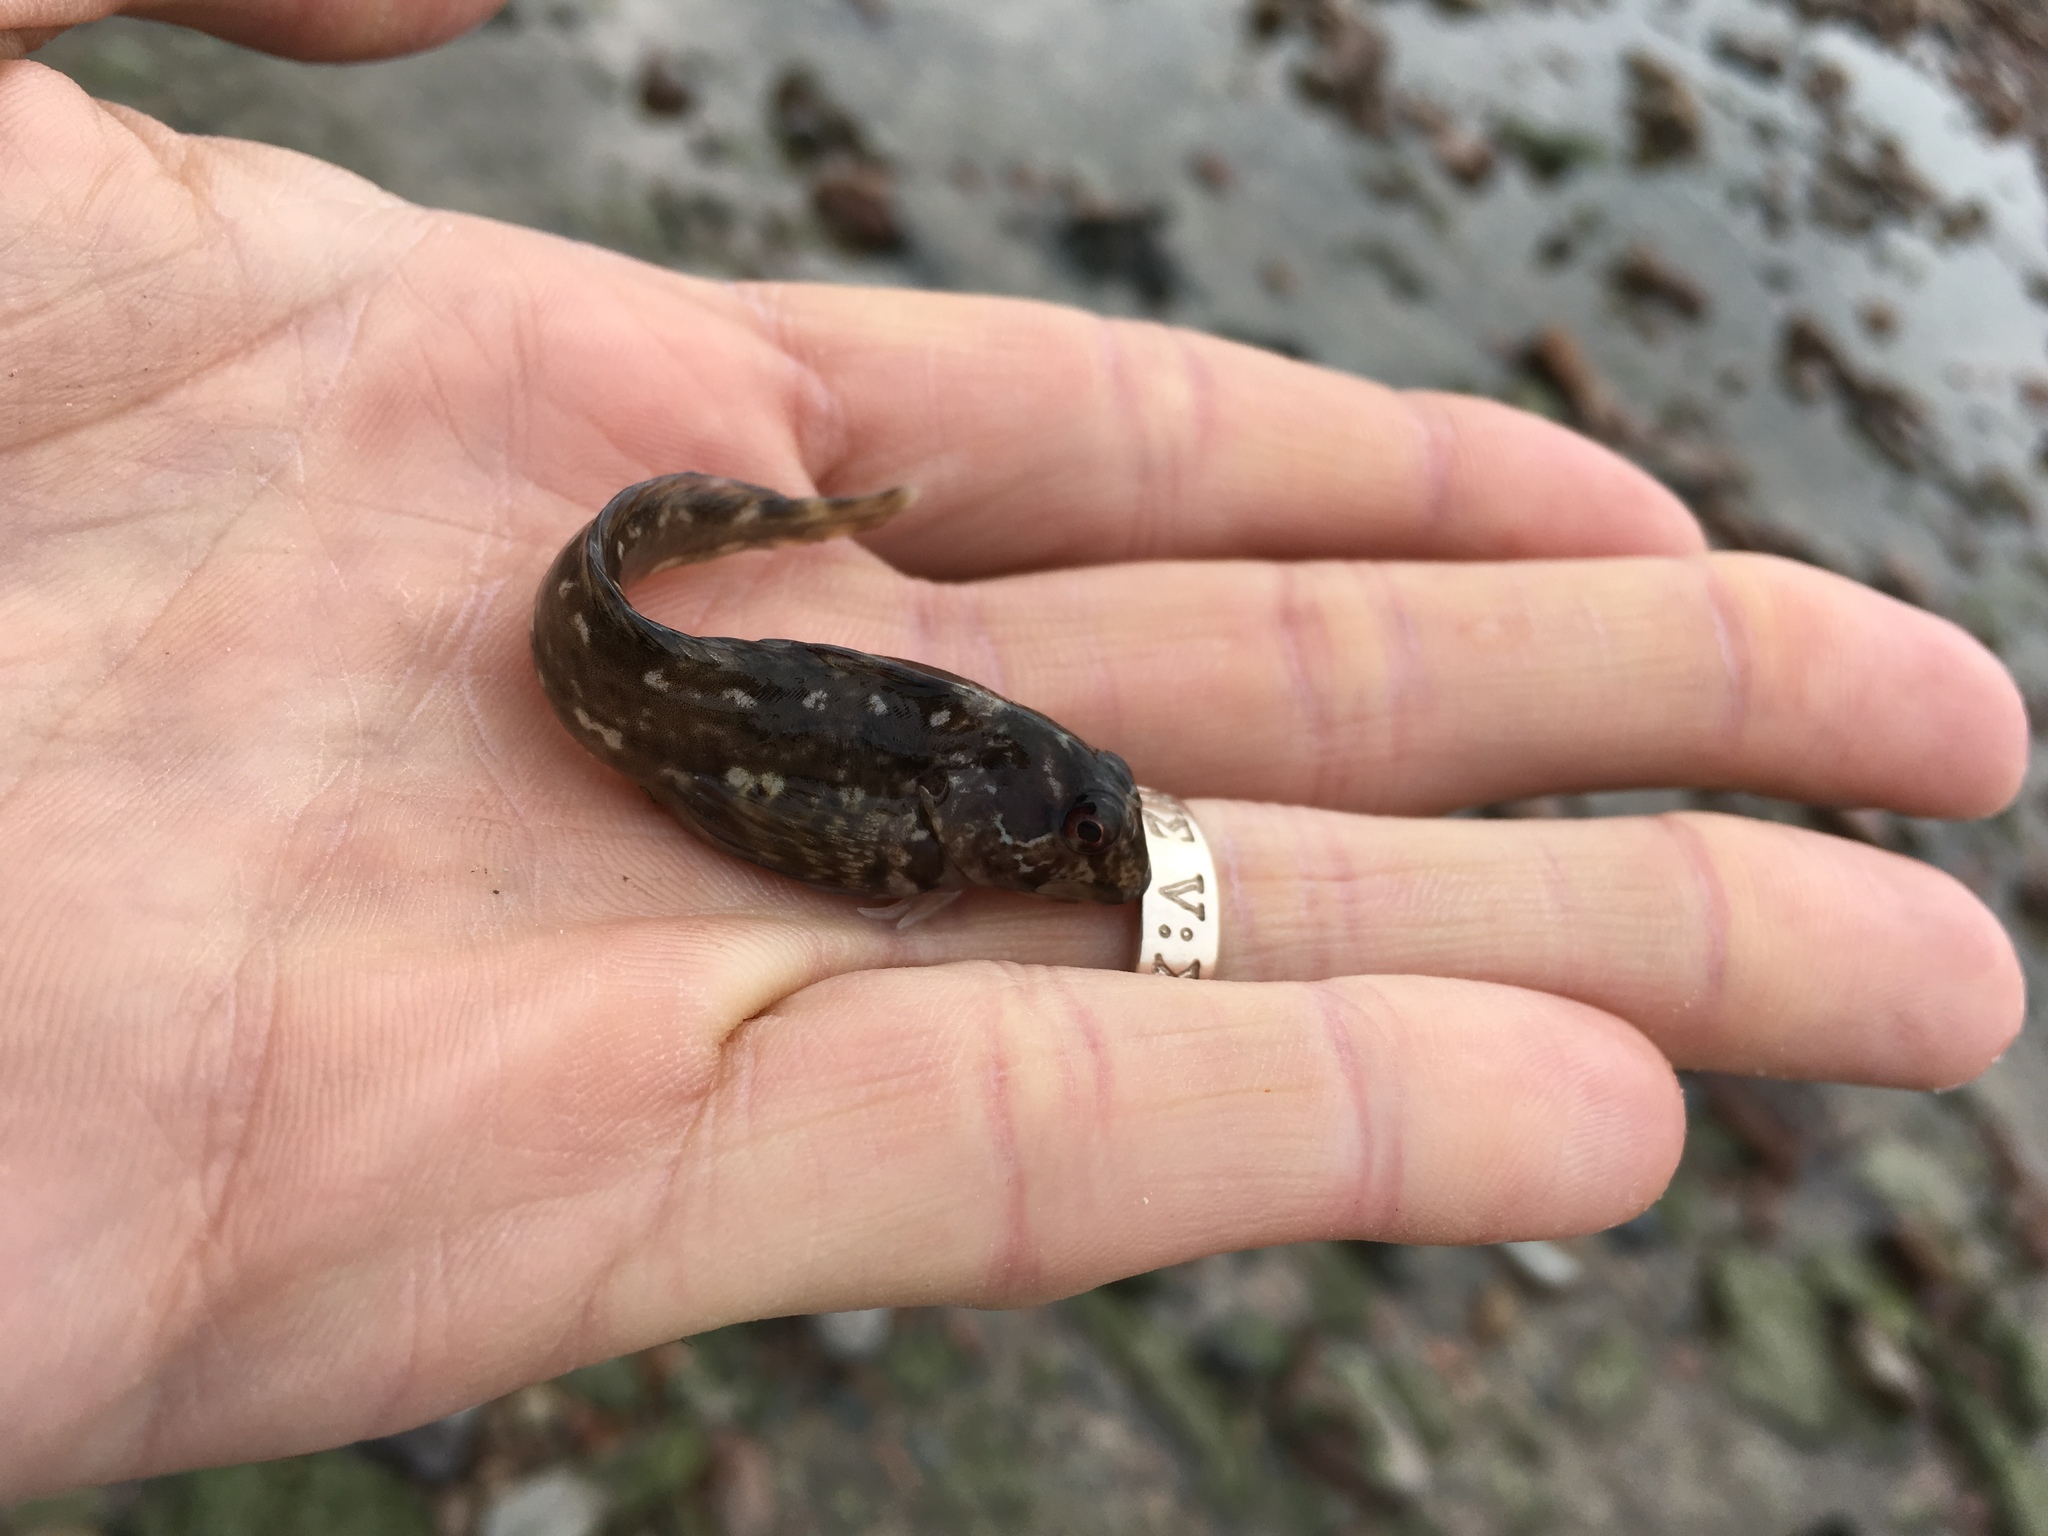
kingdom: Animalia
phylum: Chordata
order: Perciformes
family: Blenniidae
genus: Lipophrys
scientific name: Lipophrys pholis
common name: Shanny
